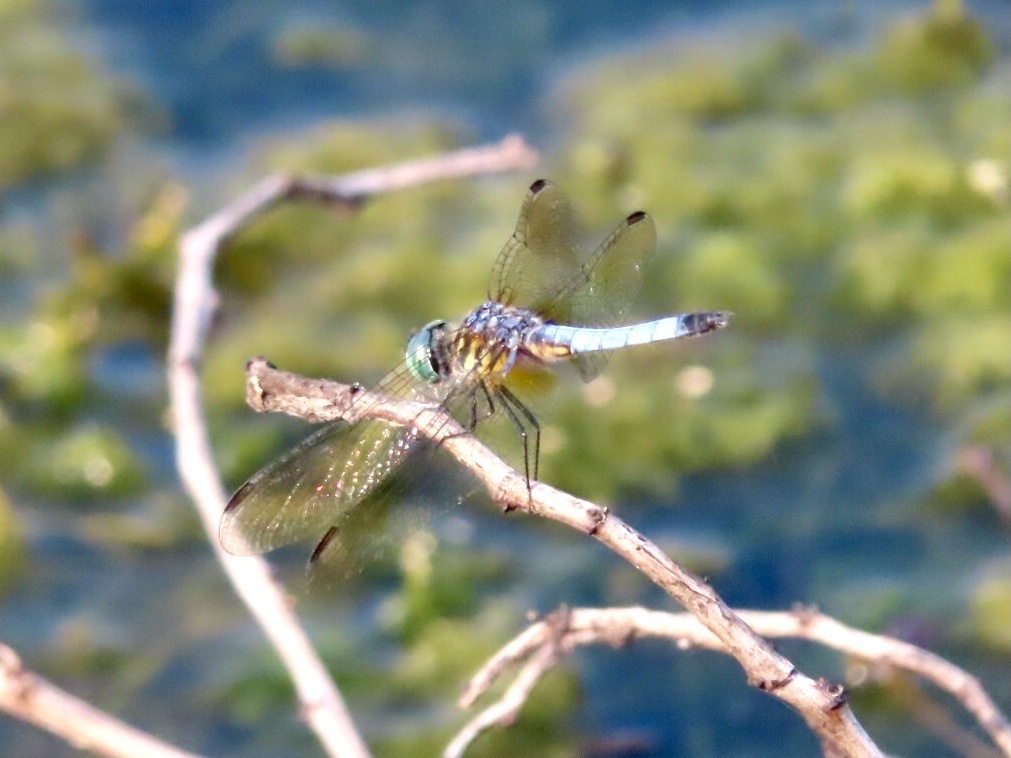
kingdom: Animalia
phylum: Arthropoda
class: Insecta
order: Odonata
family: Libellulidae
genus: Pachydiplax
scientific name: Pachydiplax longipennis
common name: Blue dasher
